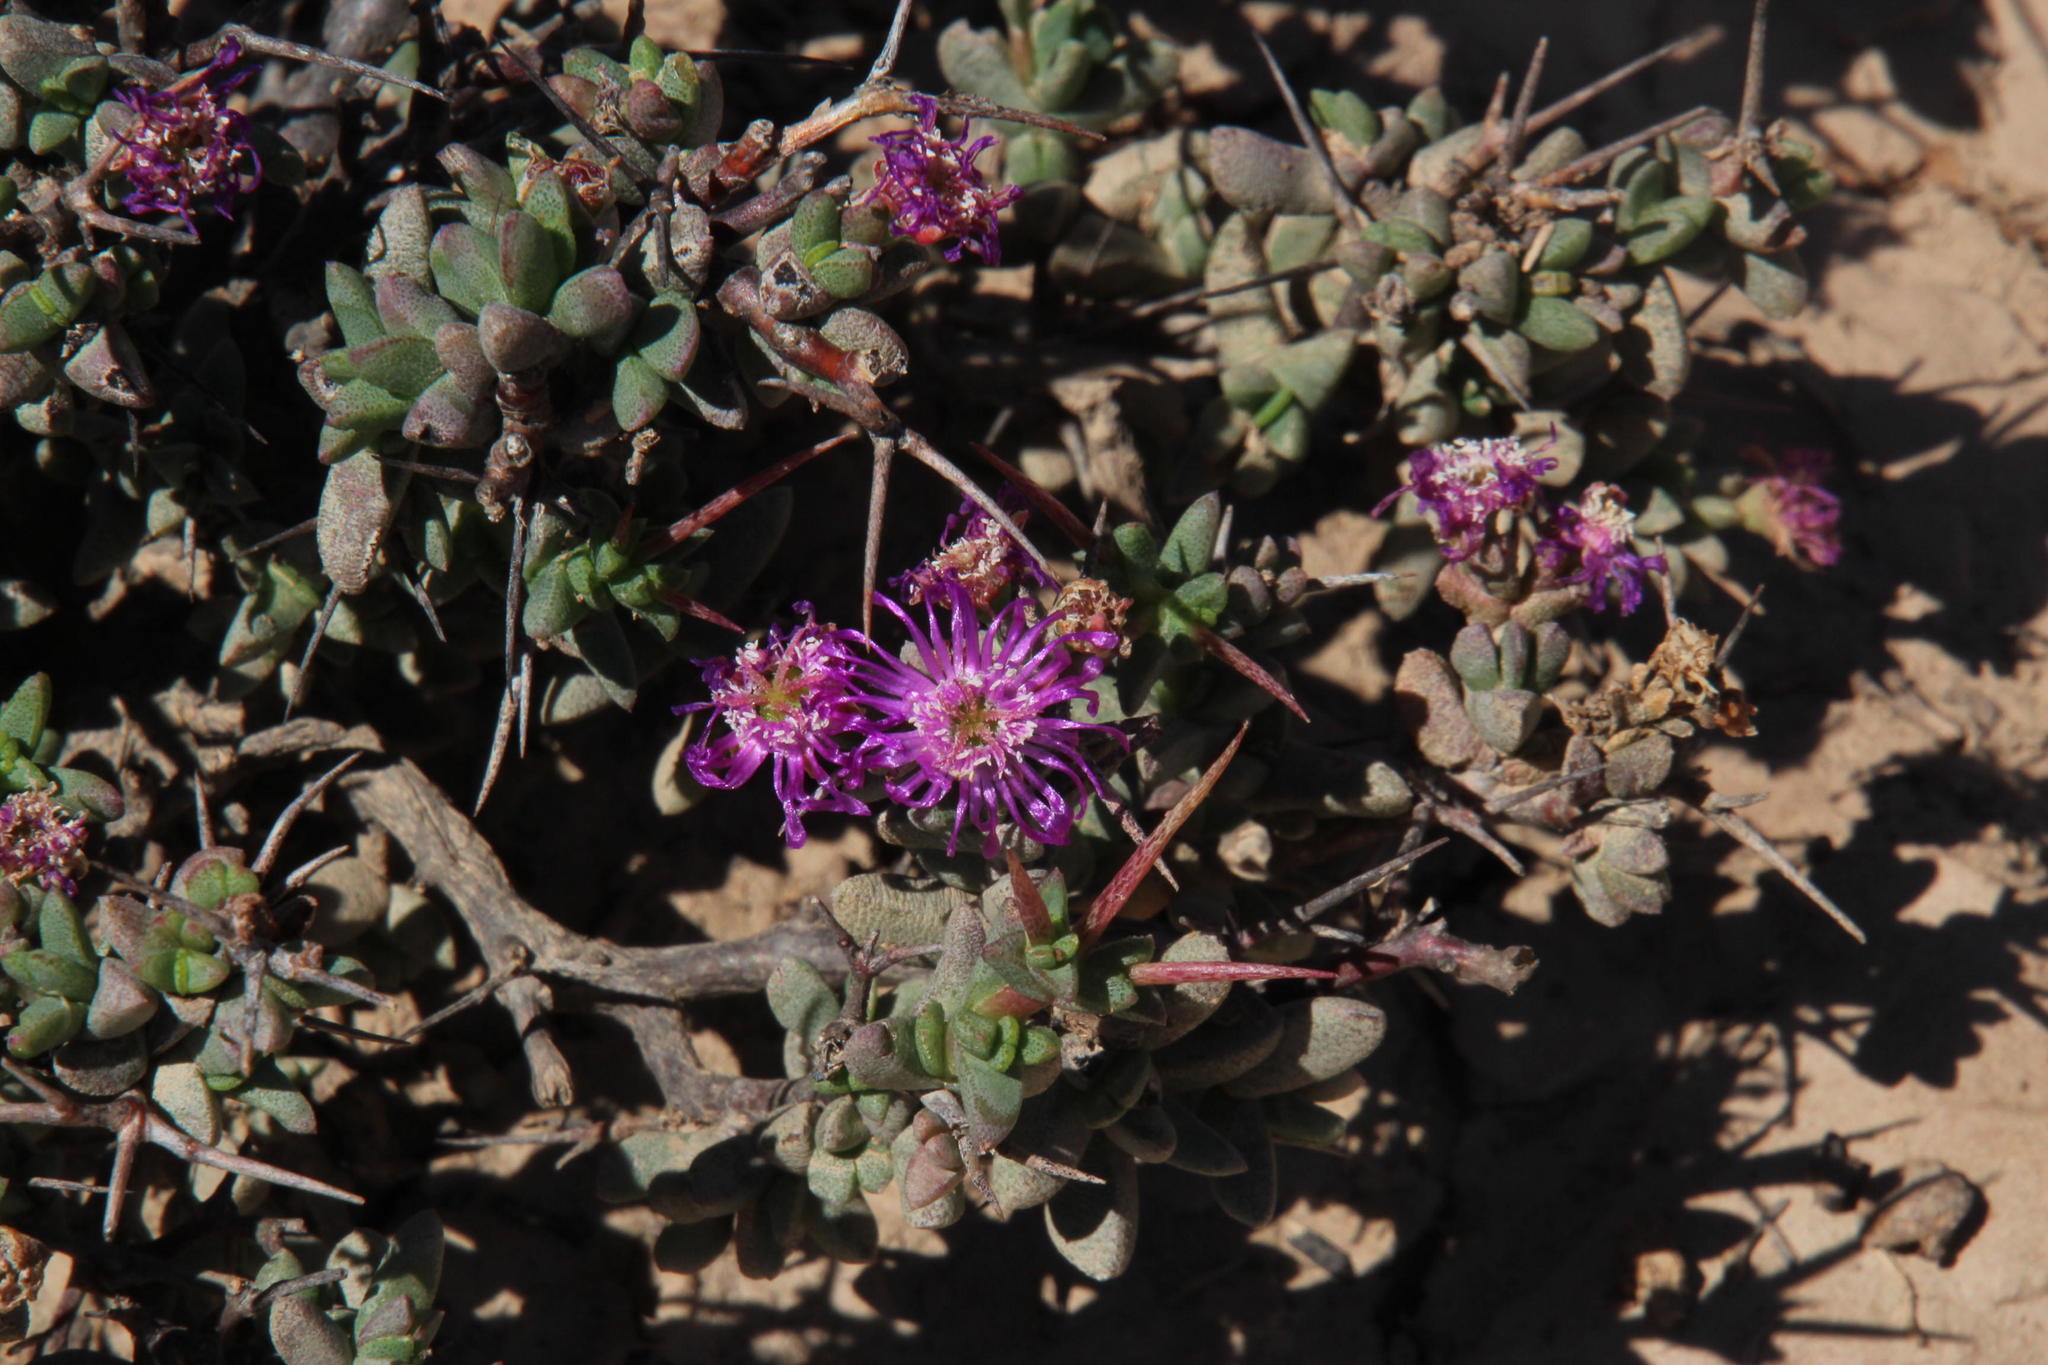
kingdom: Plantae
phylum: Tracheophyta
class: Magnoliopsida
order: Caryophyllales
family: Aizoaceae
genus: Ruschia
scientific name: Ruschia cradockensis
